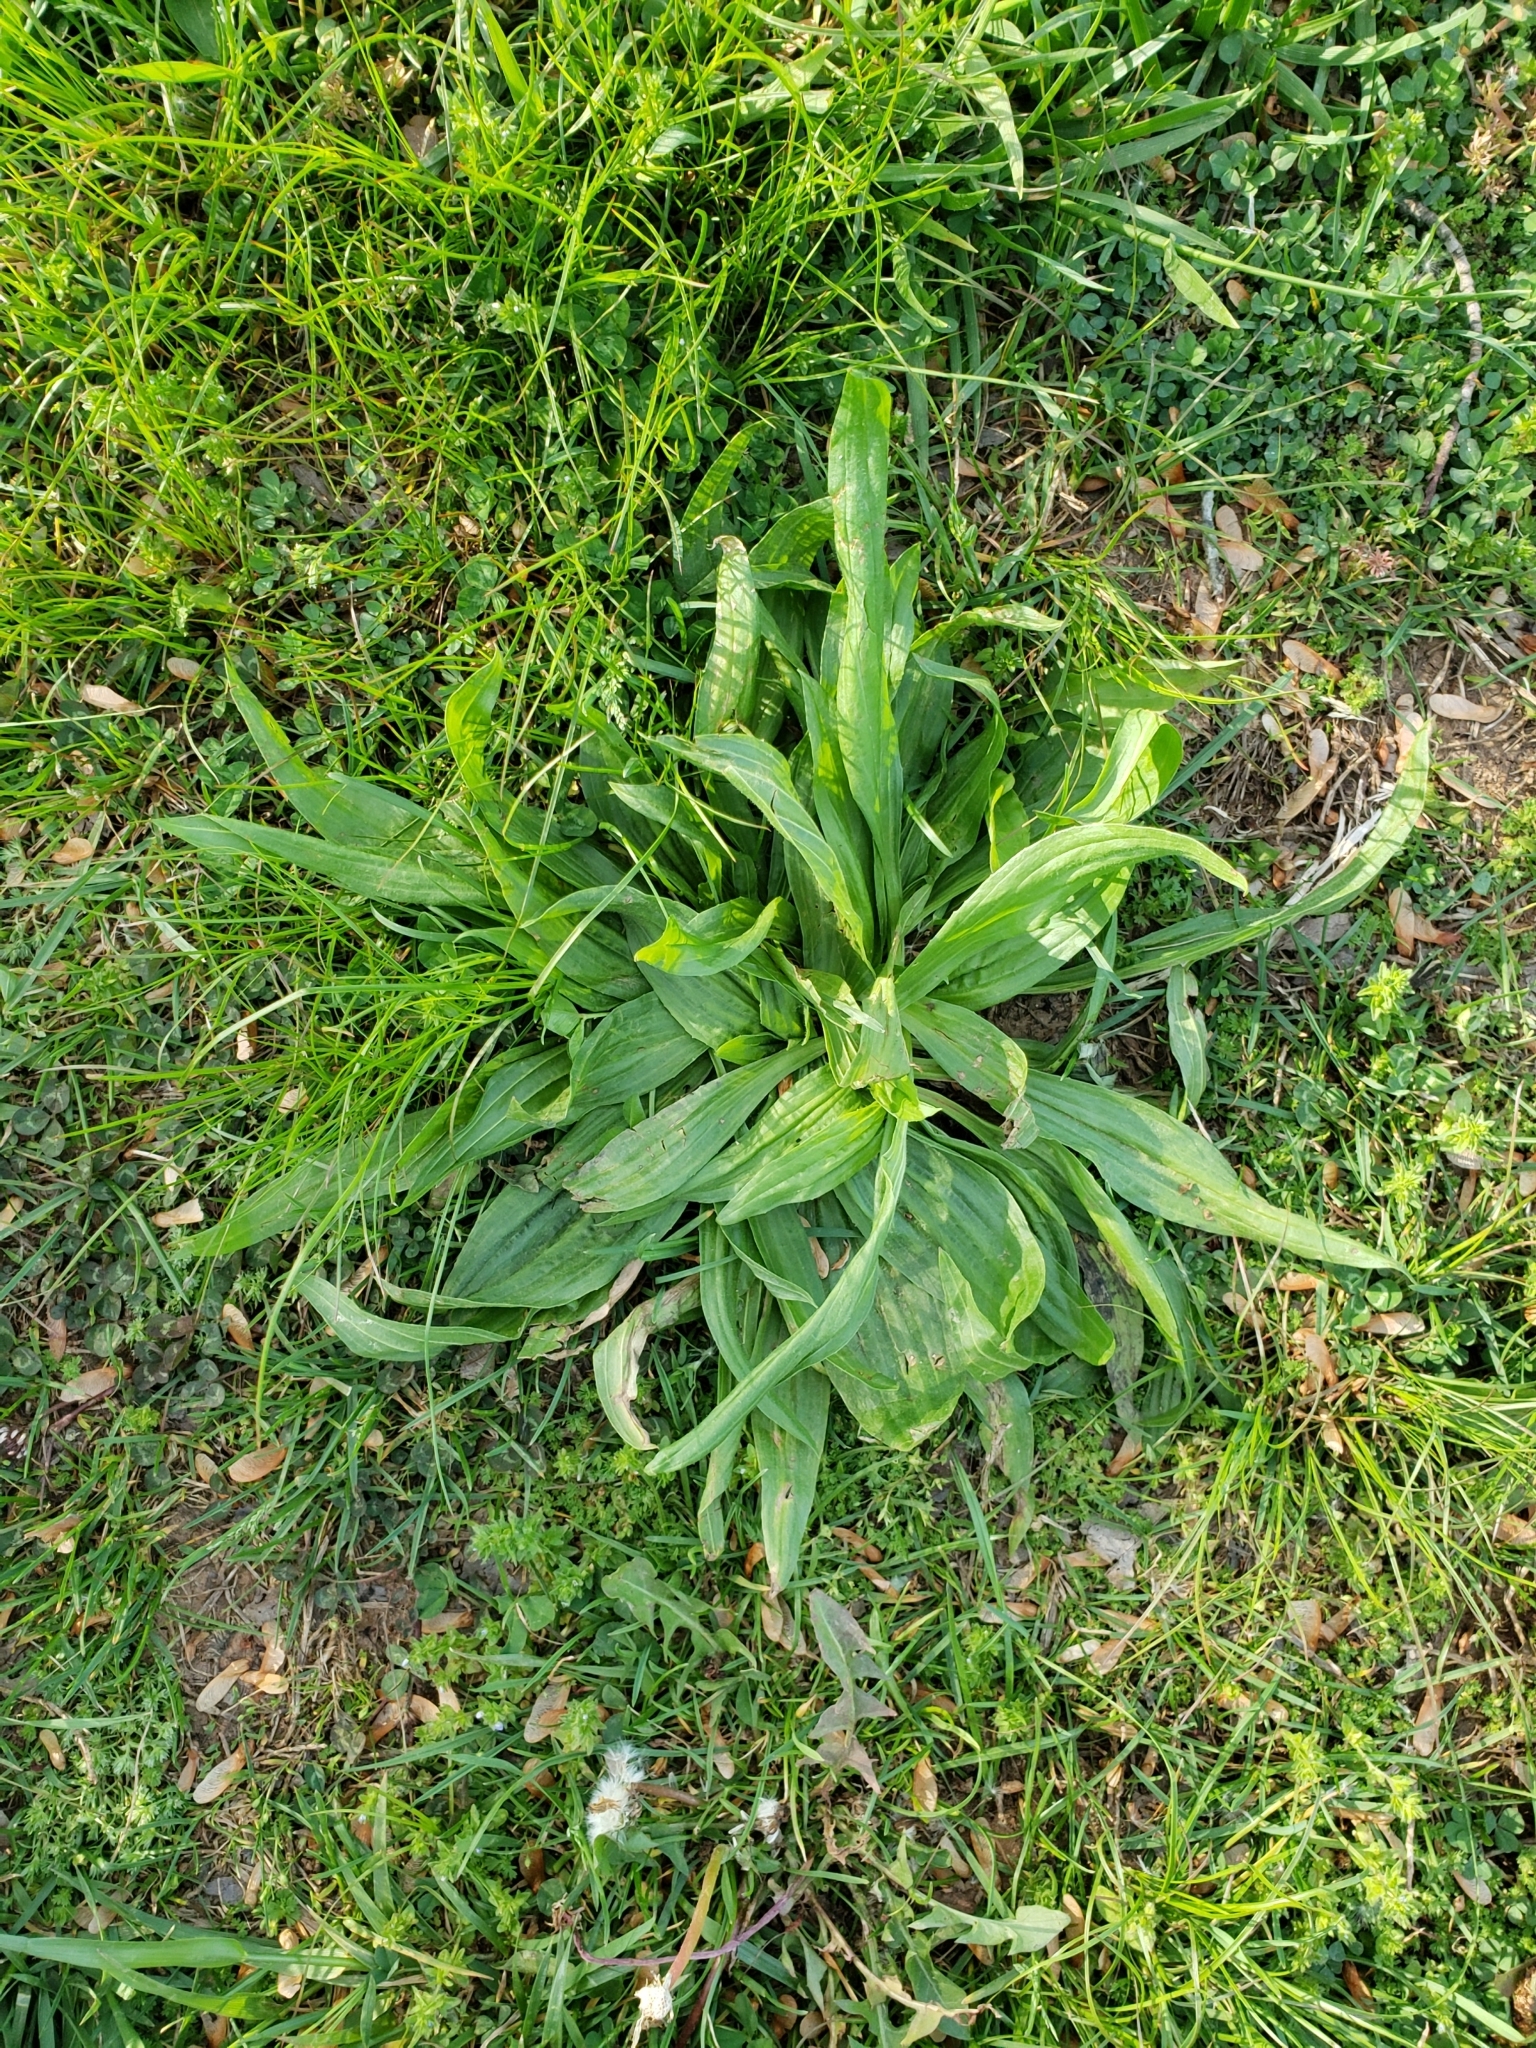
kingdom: Plantae
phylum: Tracheophyta
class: Magnoliopsida
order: Lamiales
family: Plantaginaceae
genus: Plantago
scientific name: Plantago lanceolata
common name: Ribwort plantain
